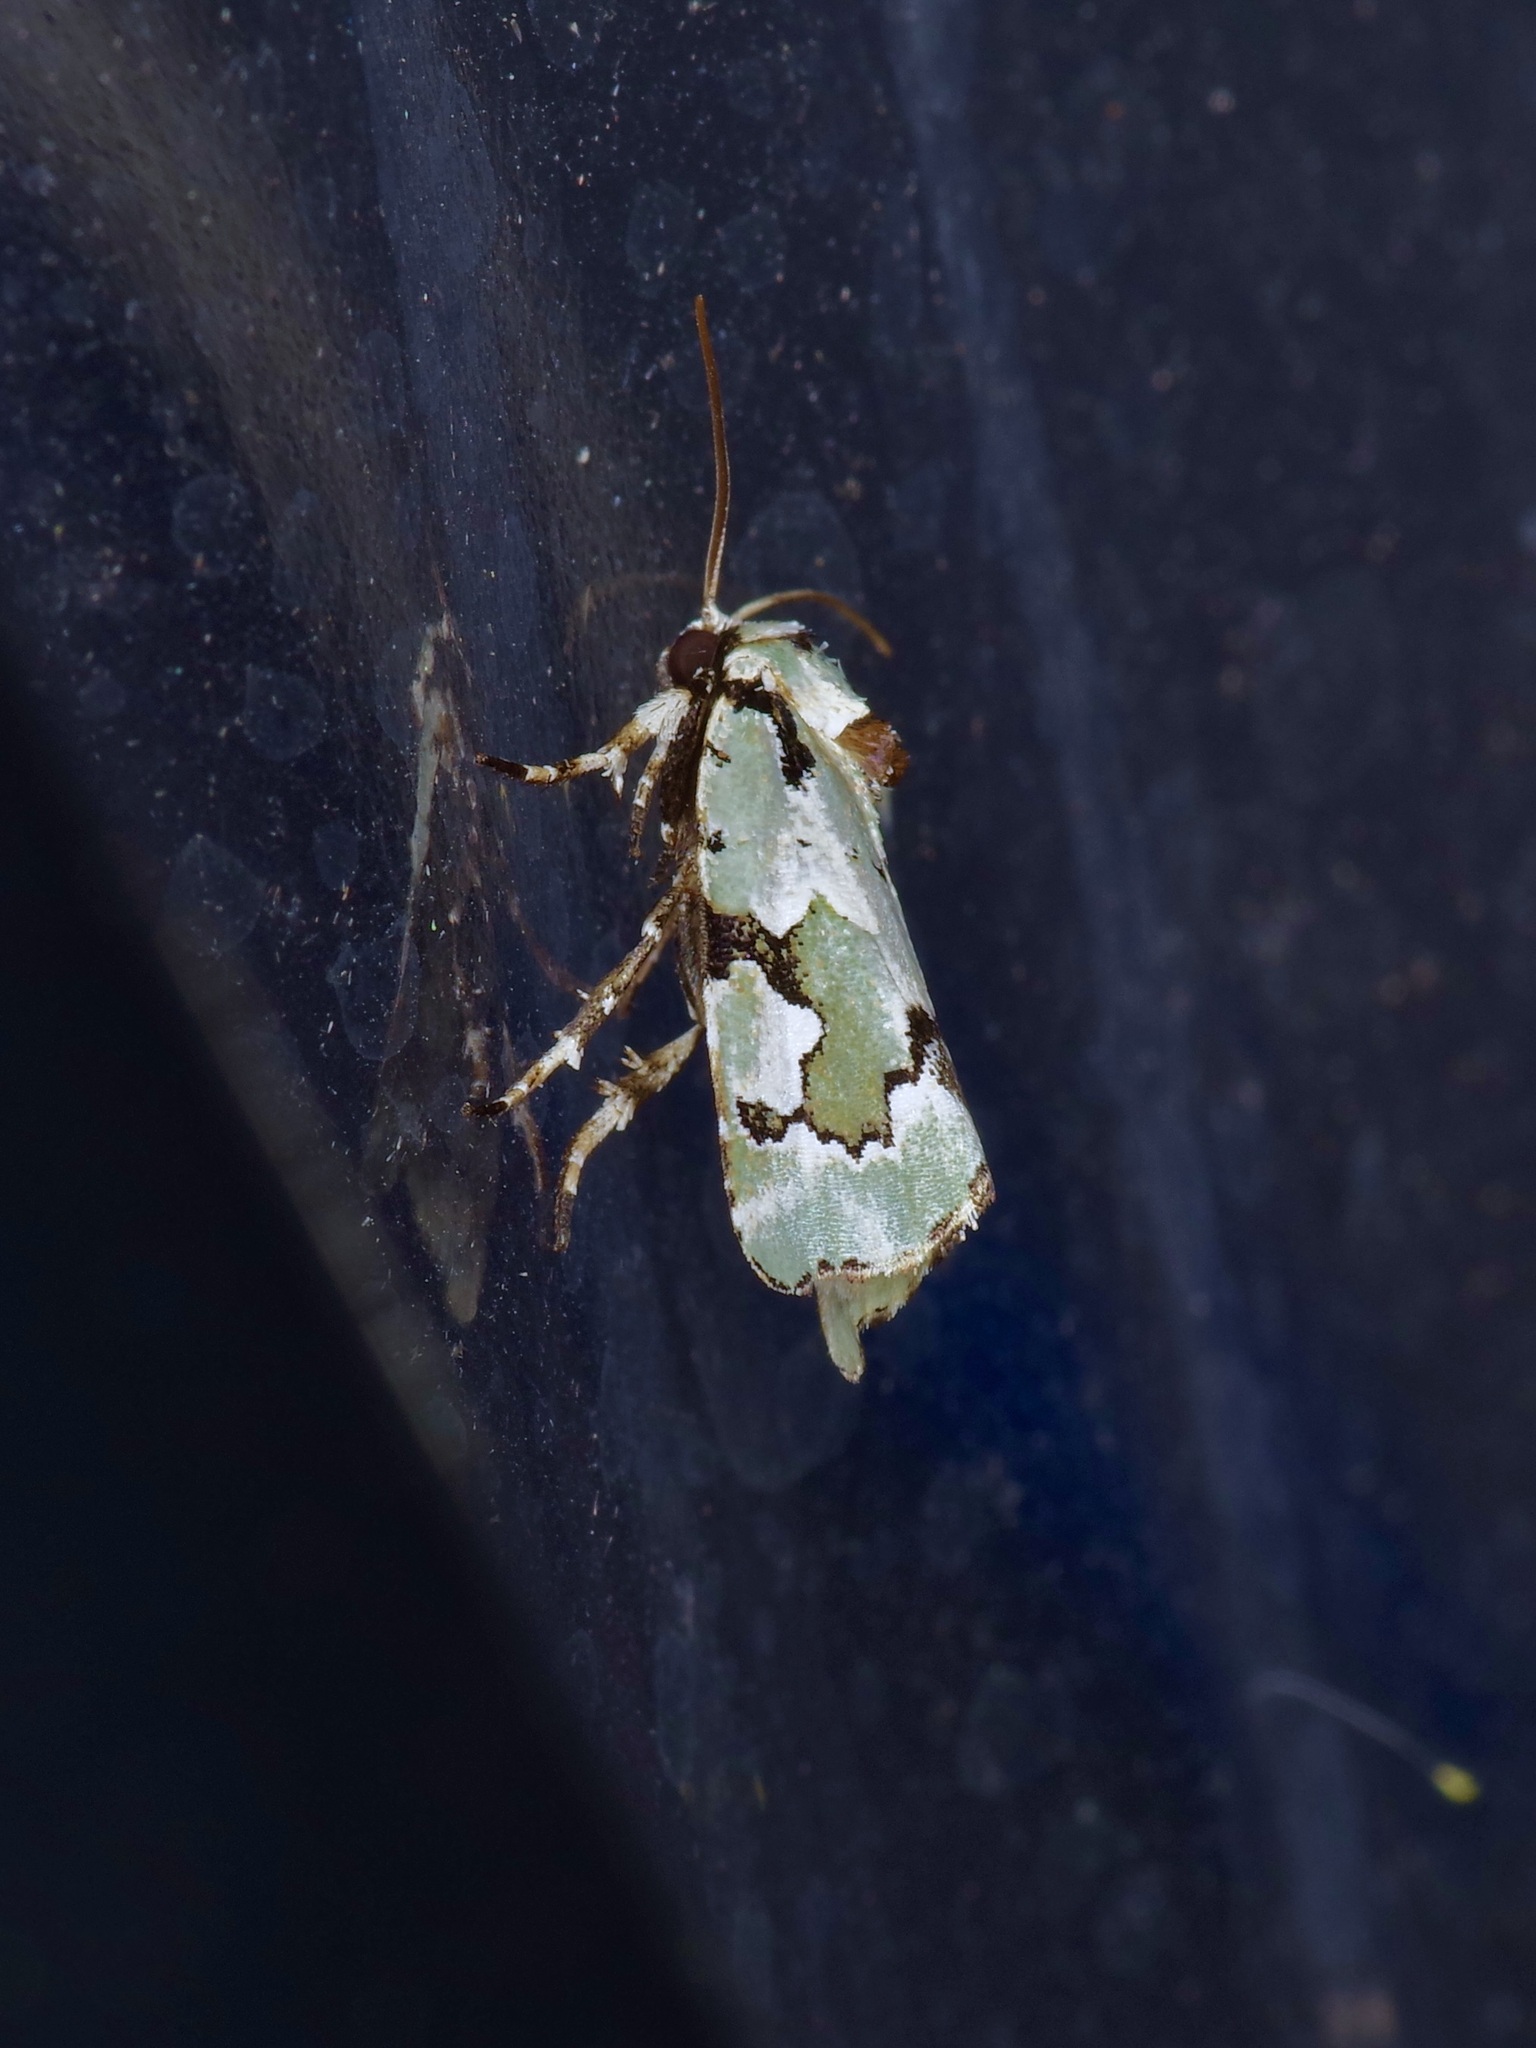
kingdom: Animalia
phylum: Arthropoda
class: Insecta
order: Lepidoptera
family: Noctuidae
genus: Emarginea
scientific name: Emarginea percara
